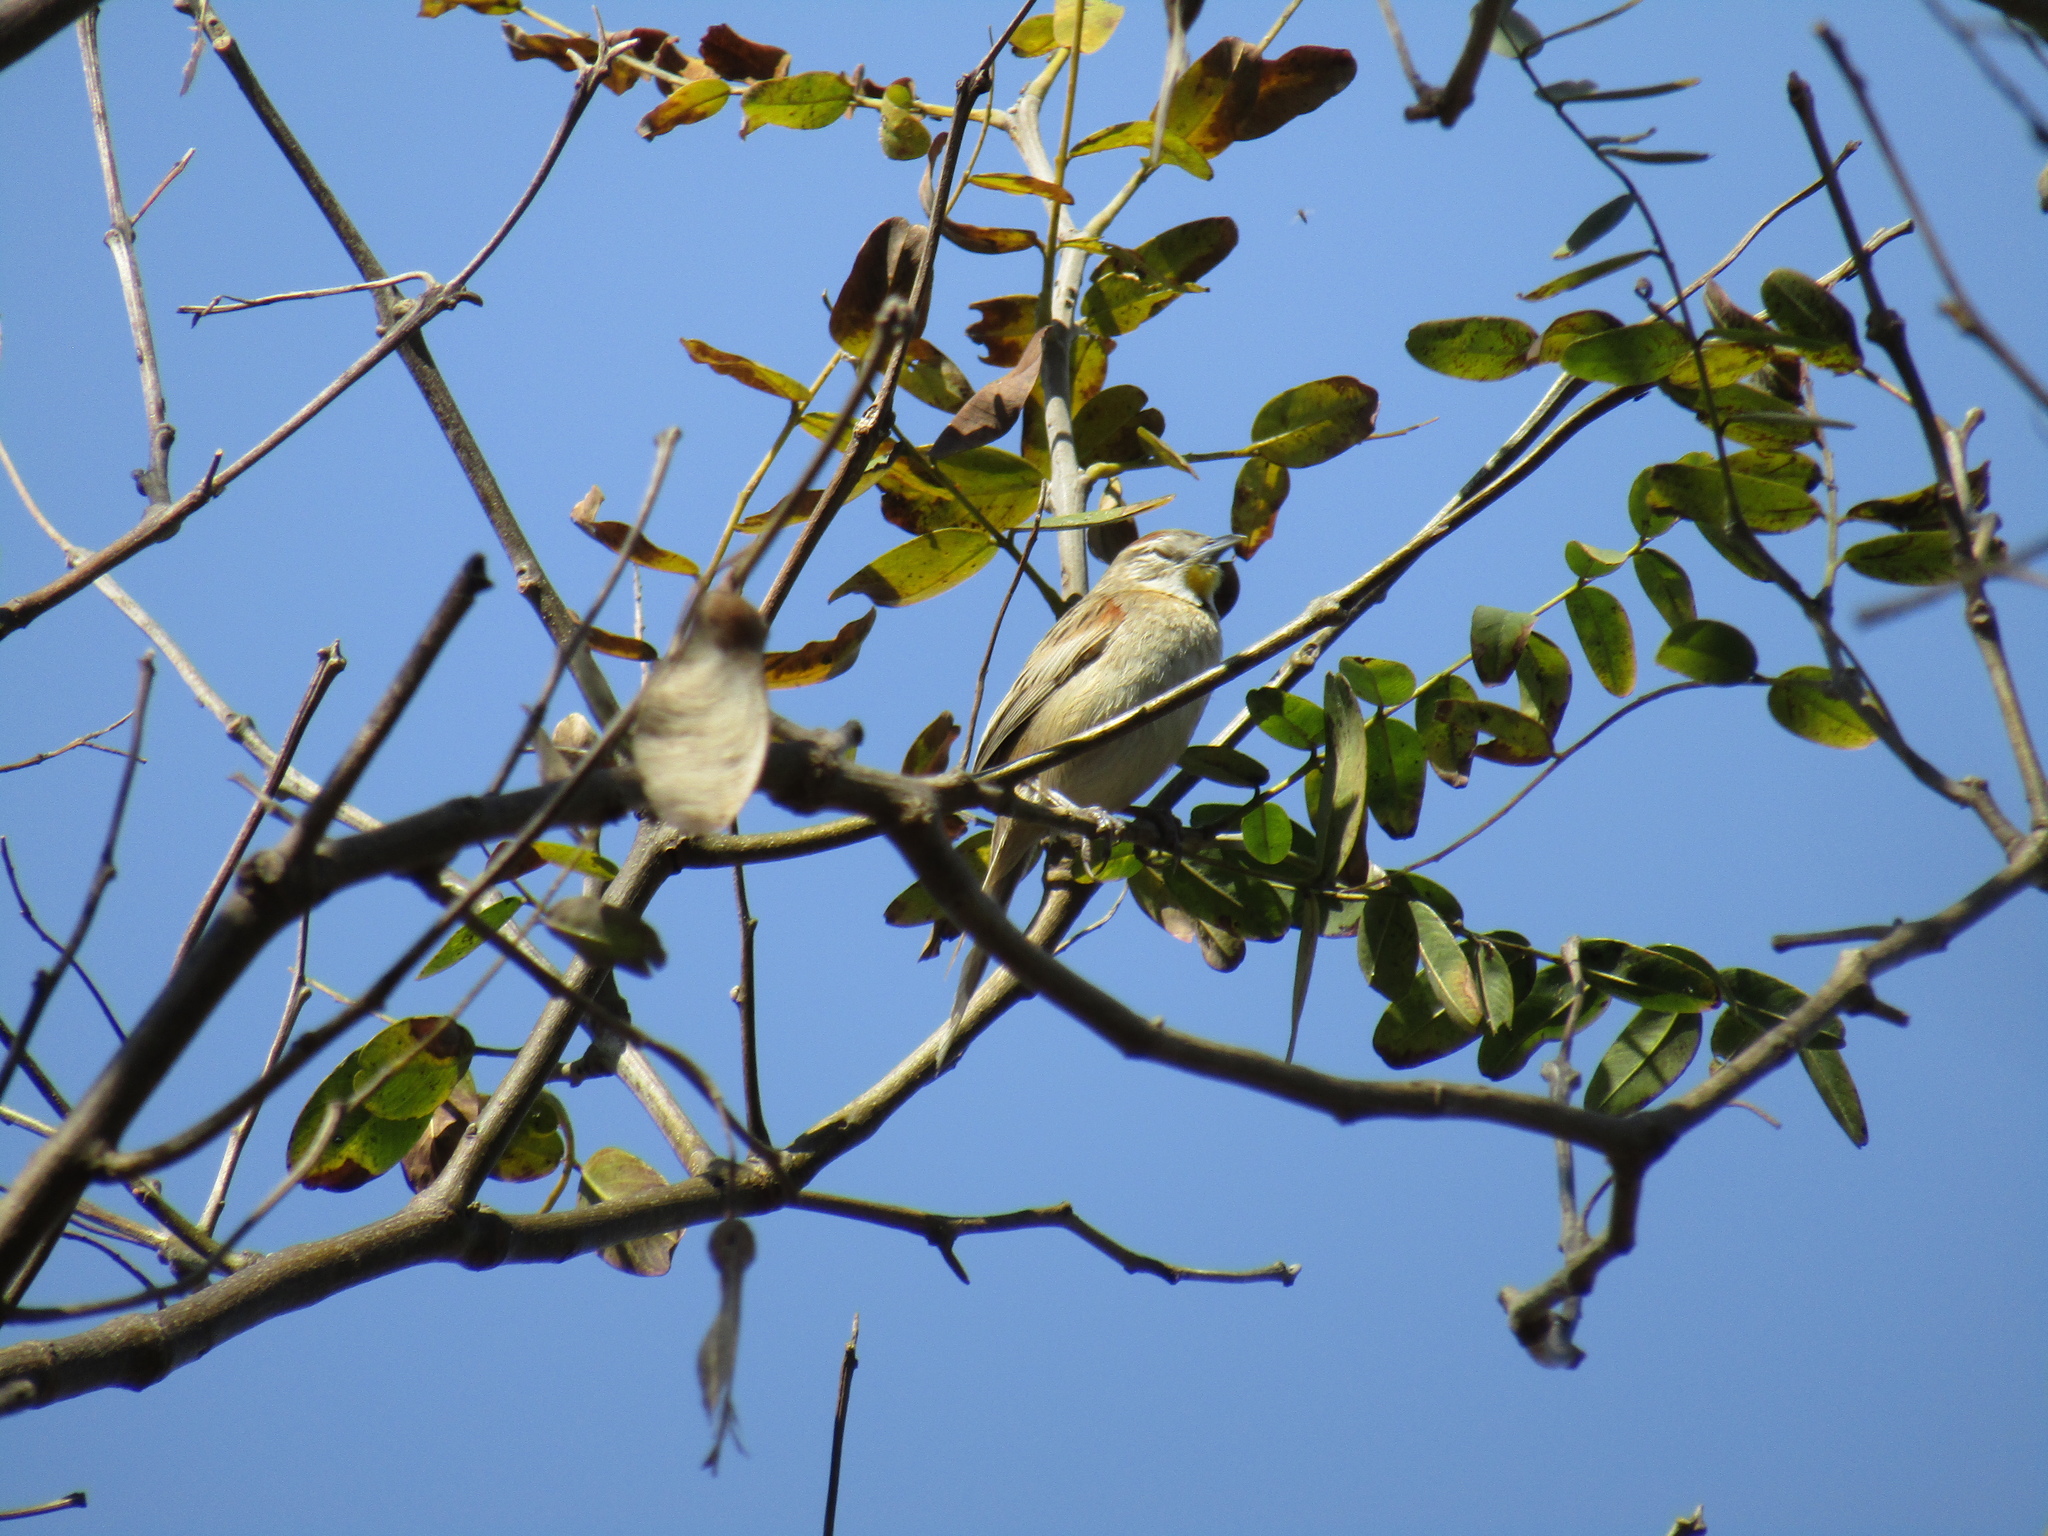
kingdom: Animalia
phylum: Chordata
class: Aves
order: Passeriformes
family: Furnariidae
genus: Schoeniophylax
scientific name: Schoeniophylax phryganophilus
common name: Chotoy spinetail
